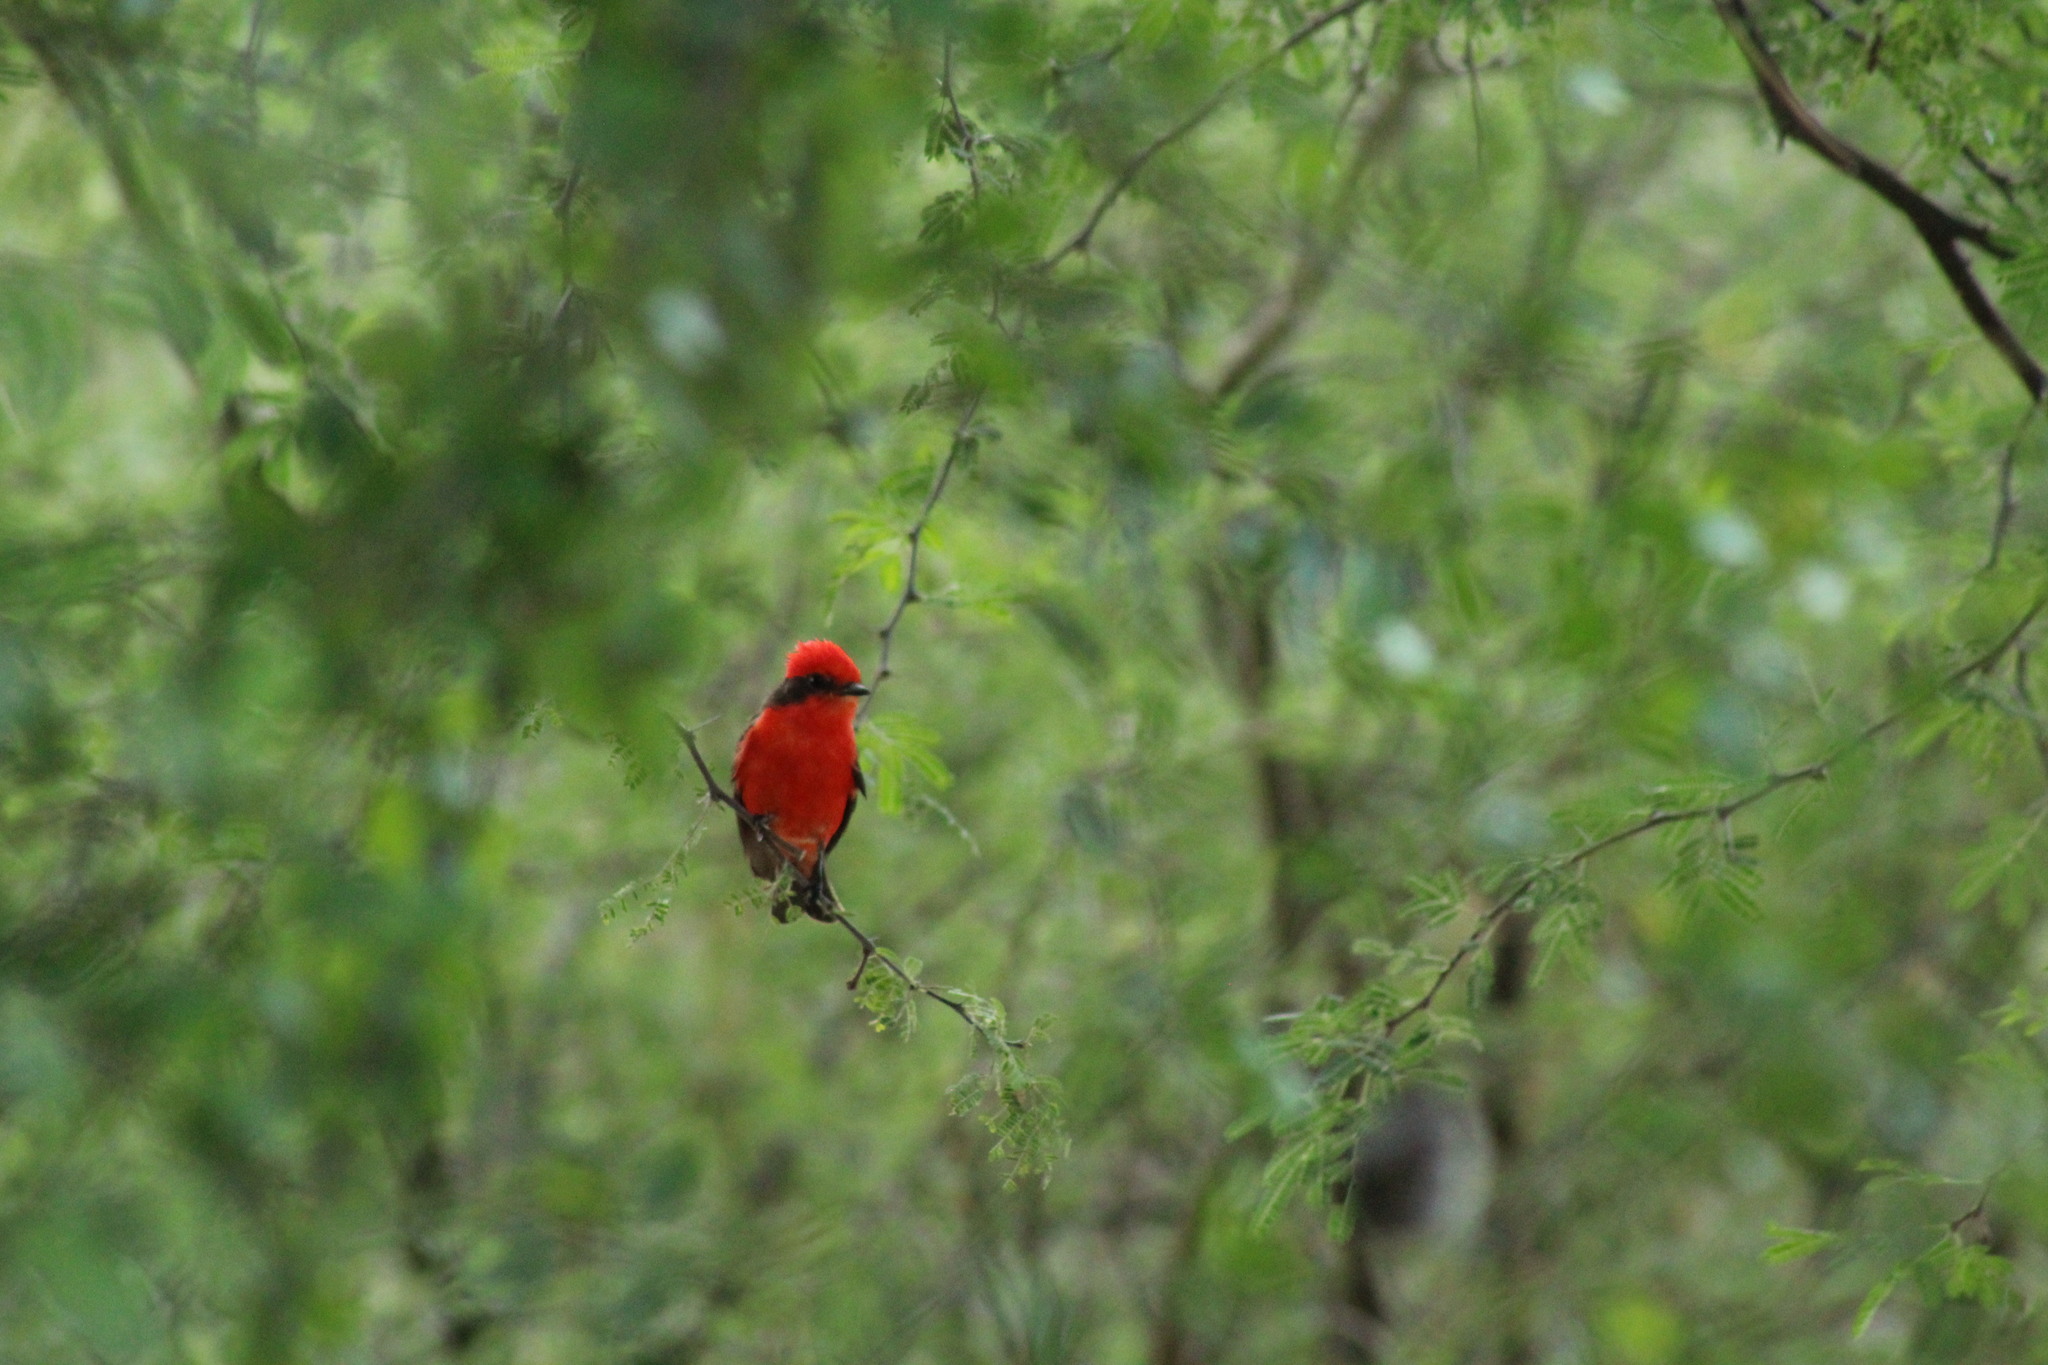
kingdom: Animalia
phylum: Chordata
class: Aves
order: Passeriformes
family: Tyrannidae
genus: Pyrocephalus
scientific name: Pyrocephalus rubinus
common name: Vermilion flycatcher
